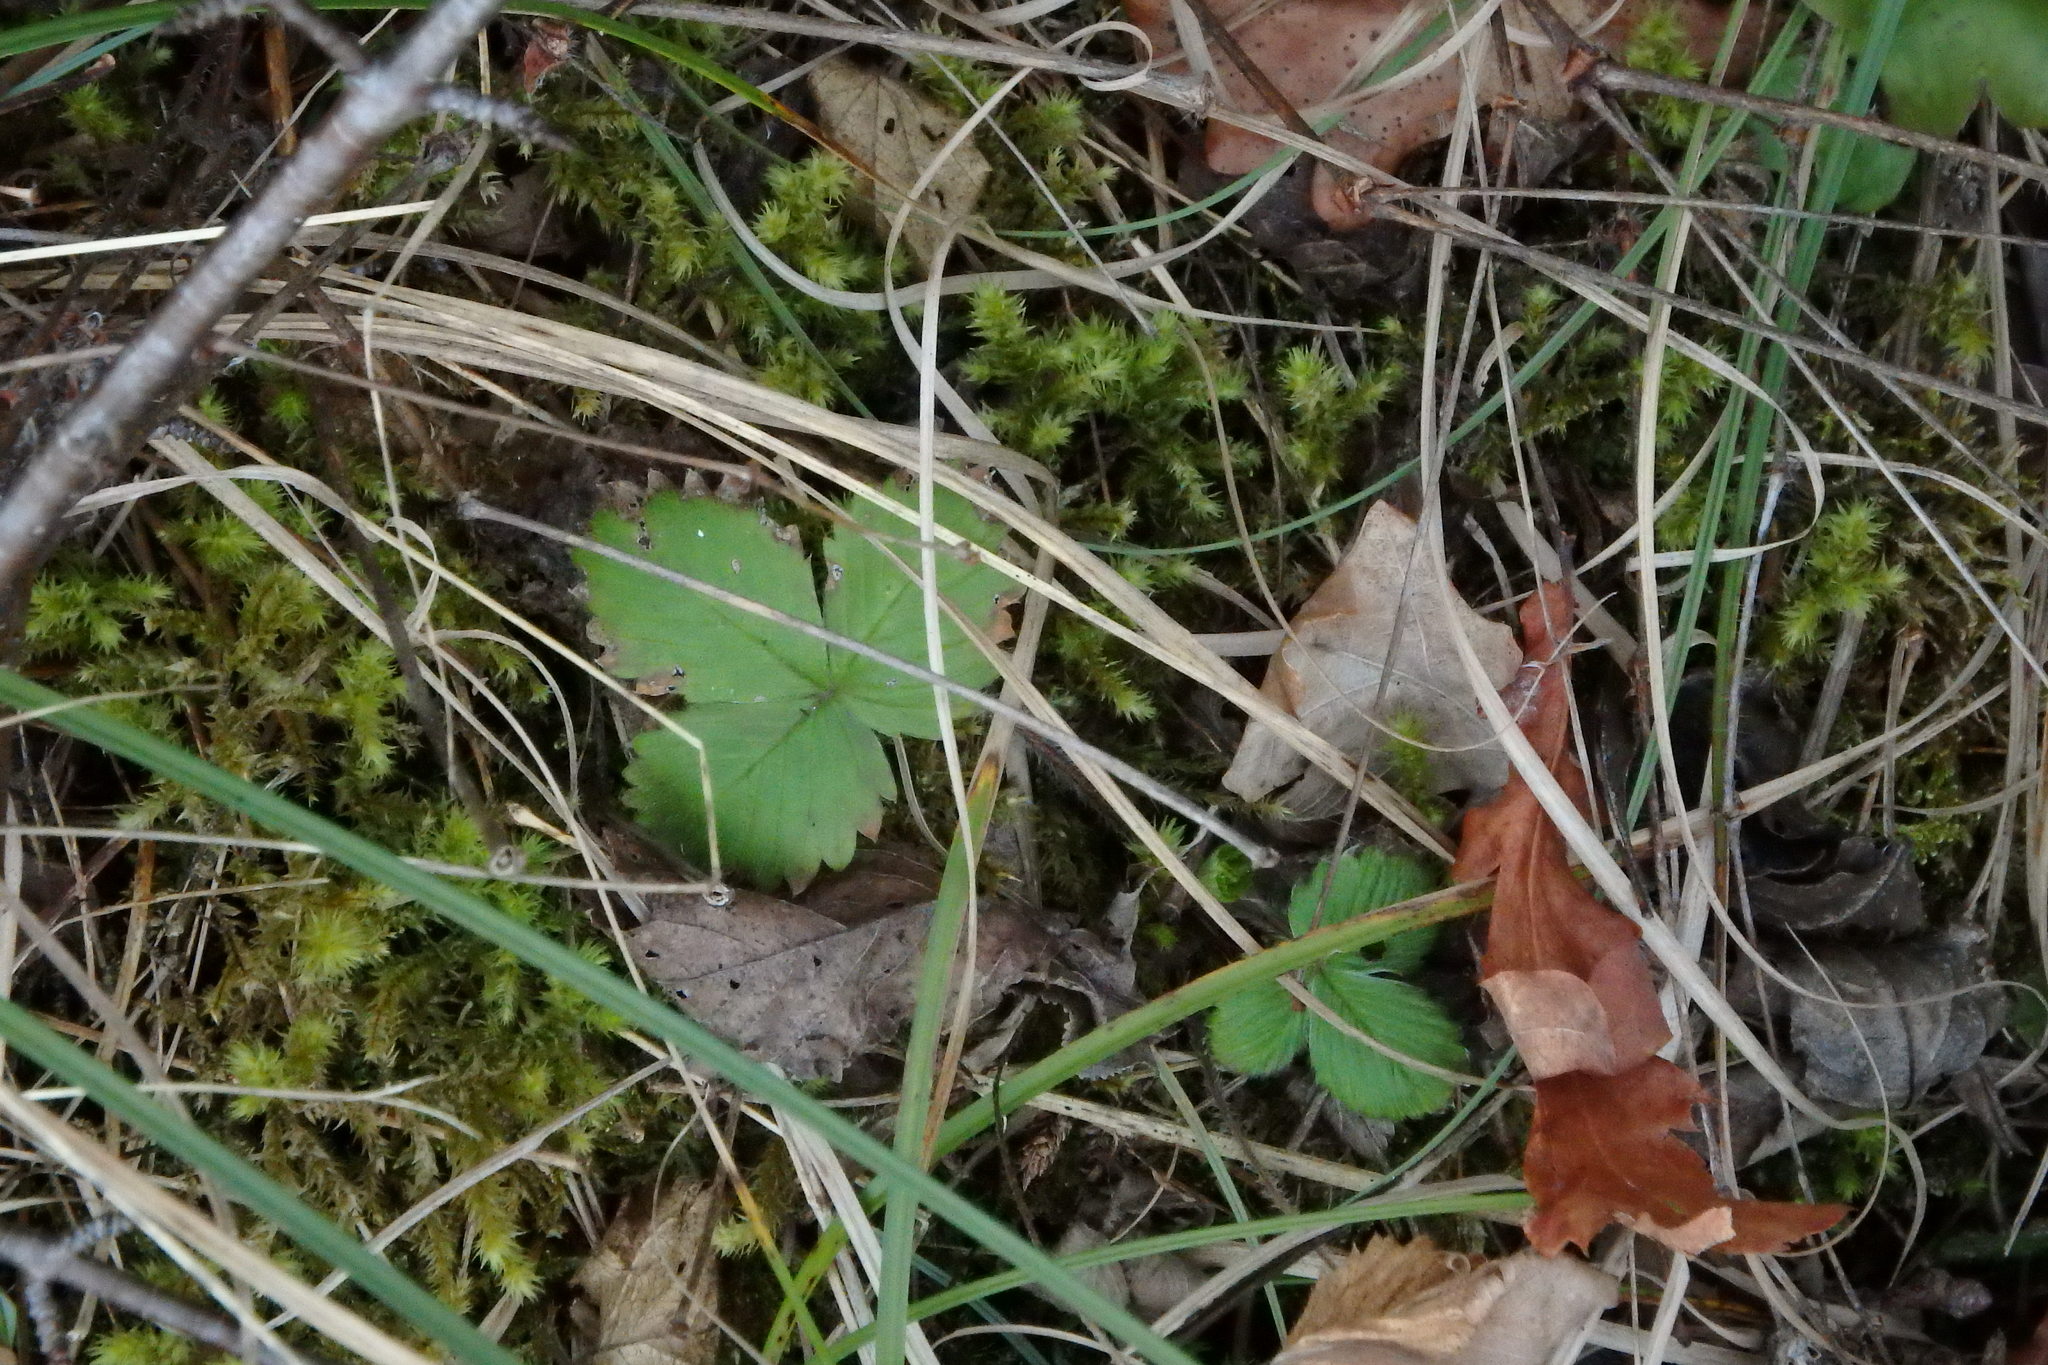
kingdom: Plantae
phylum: Tracheophyta
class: Magnoliopsida
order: Rosales
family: Rosaceae
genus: Fragaria
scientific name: Fragaria vesca
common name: Wild strawberry
